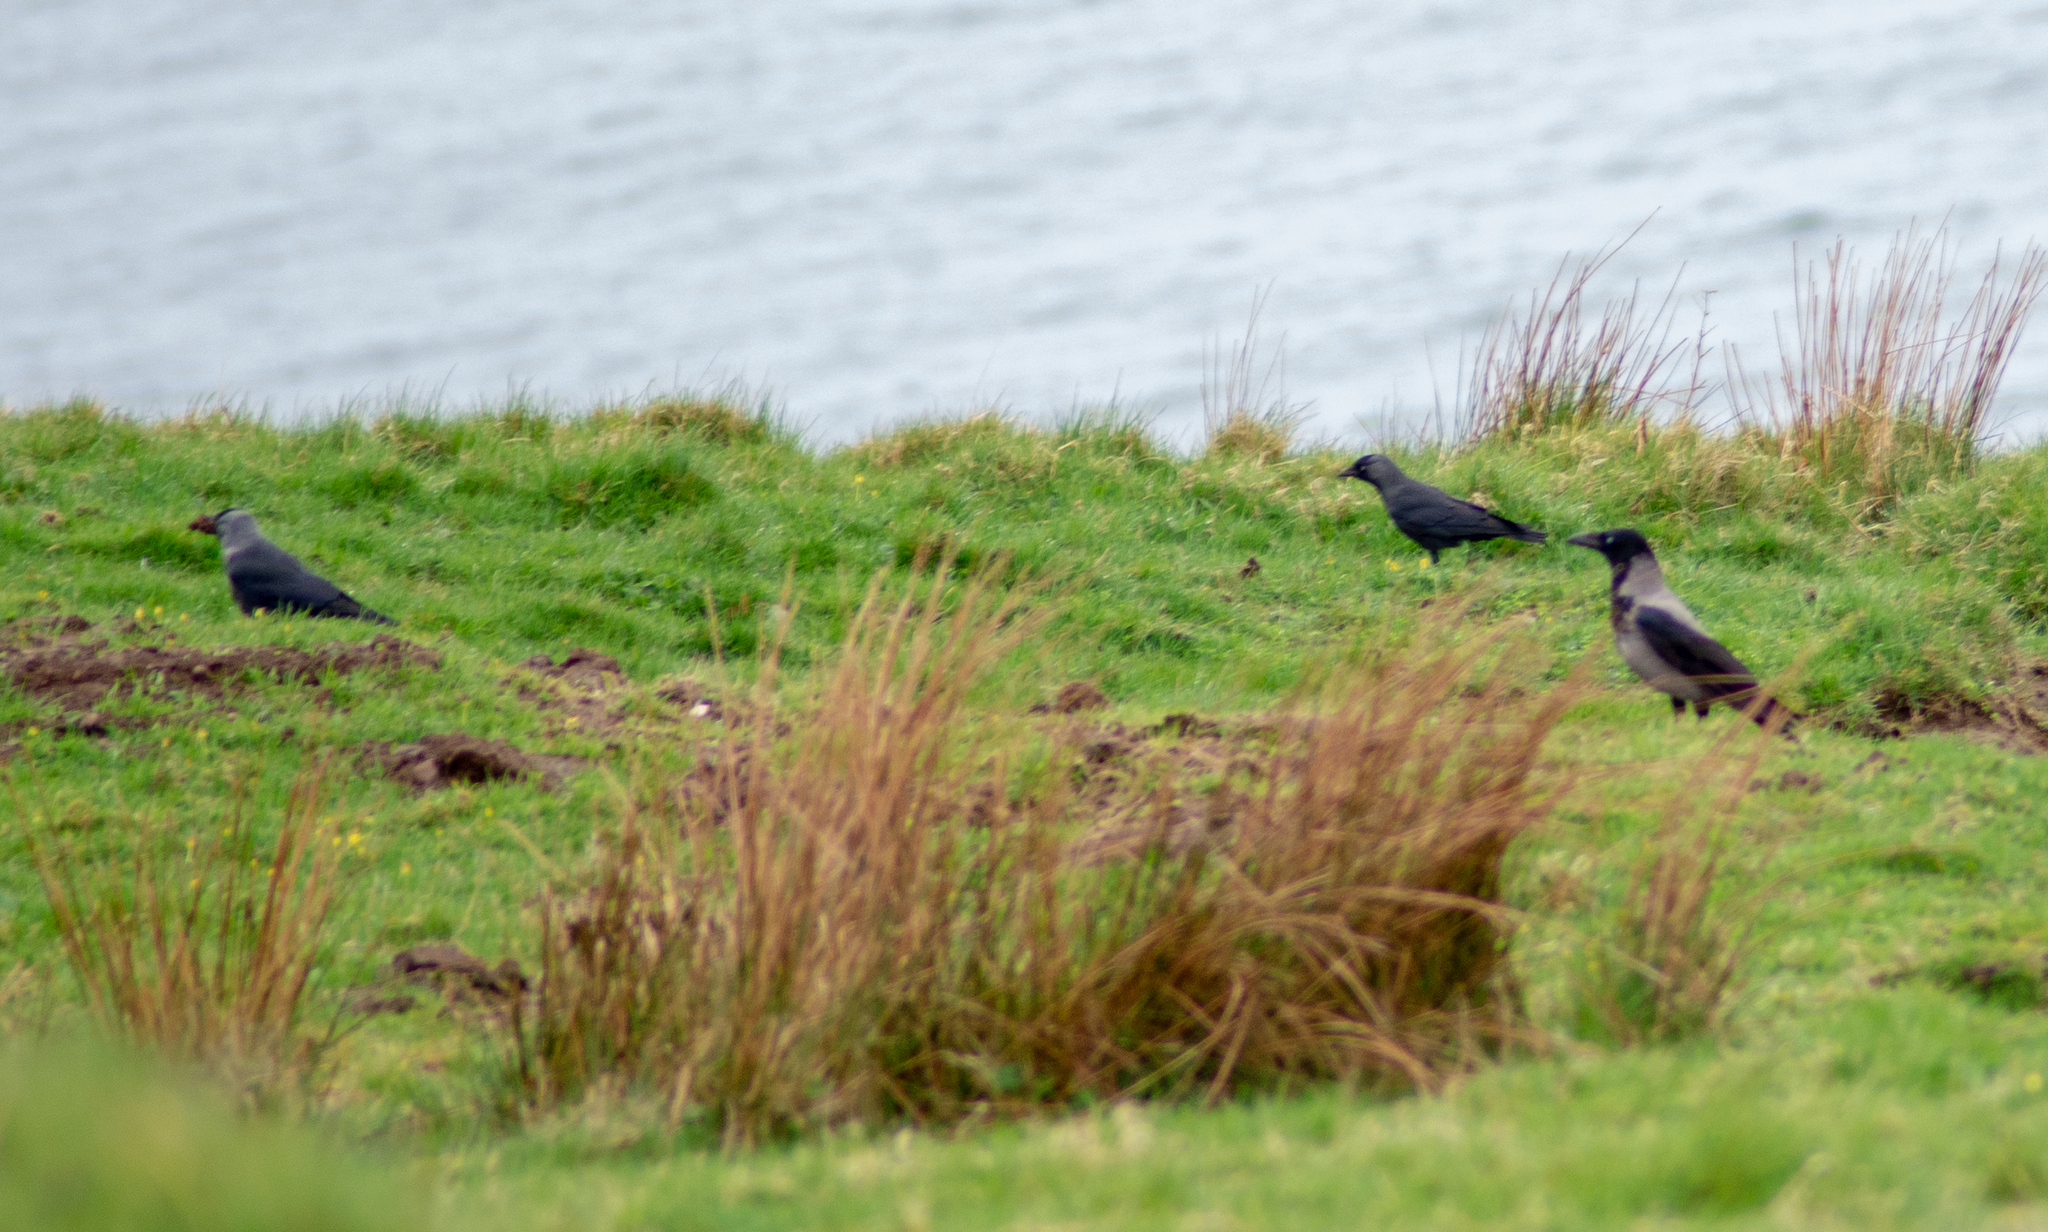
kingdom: Animalia
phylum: Chordata
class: Aves
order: Passeriformes
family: Corvidae
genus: Coloeus
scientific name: Coloeus monedula
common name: Western jackdaw
